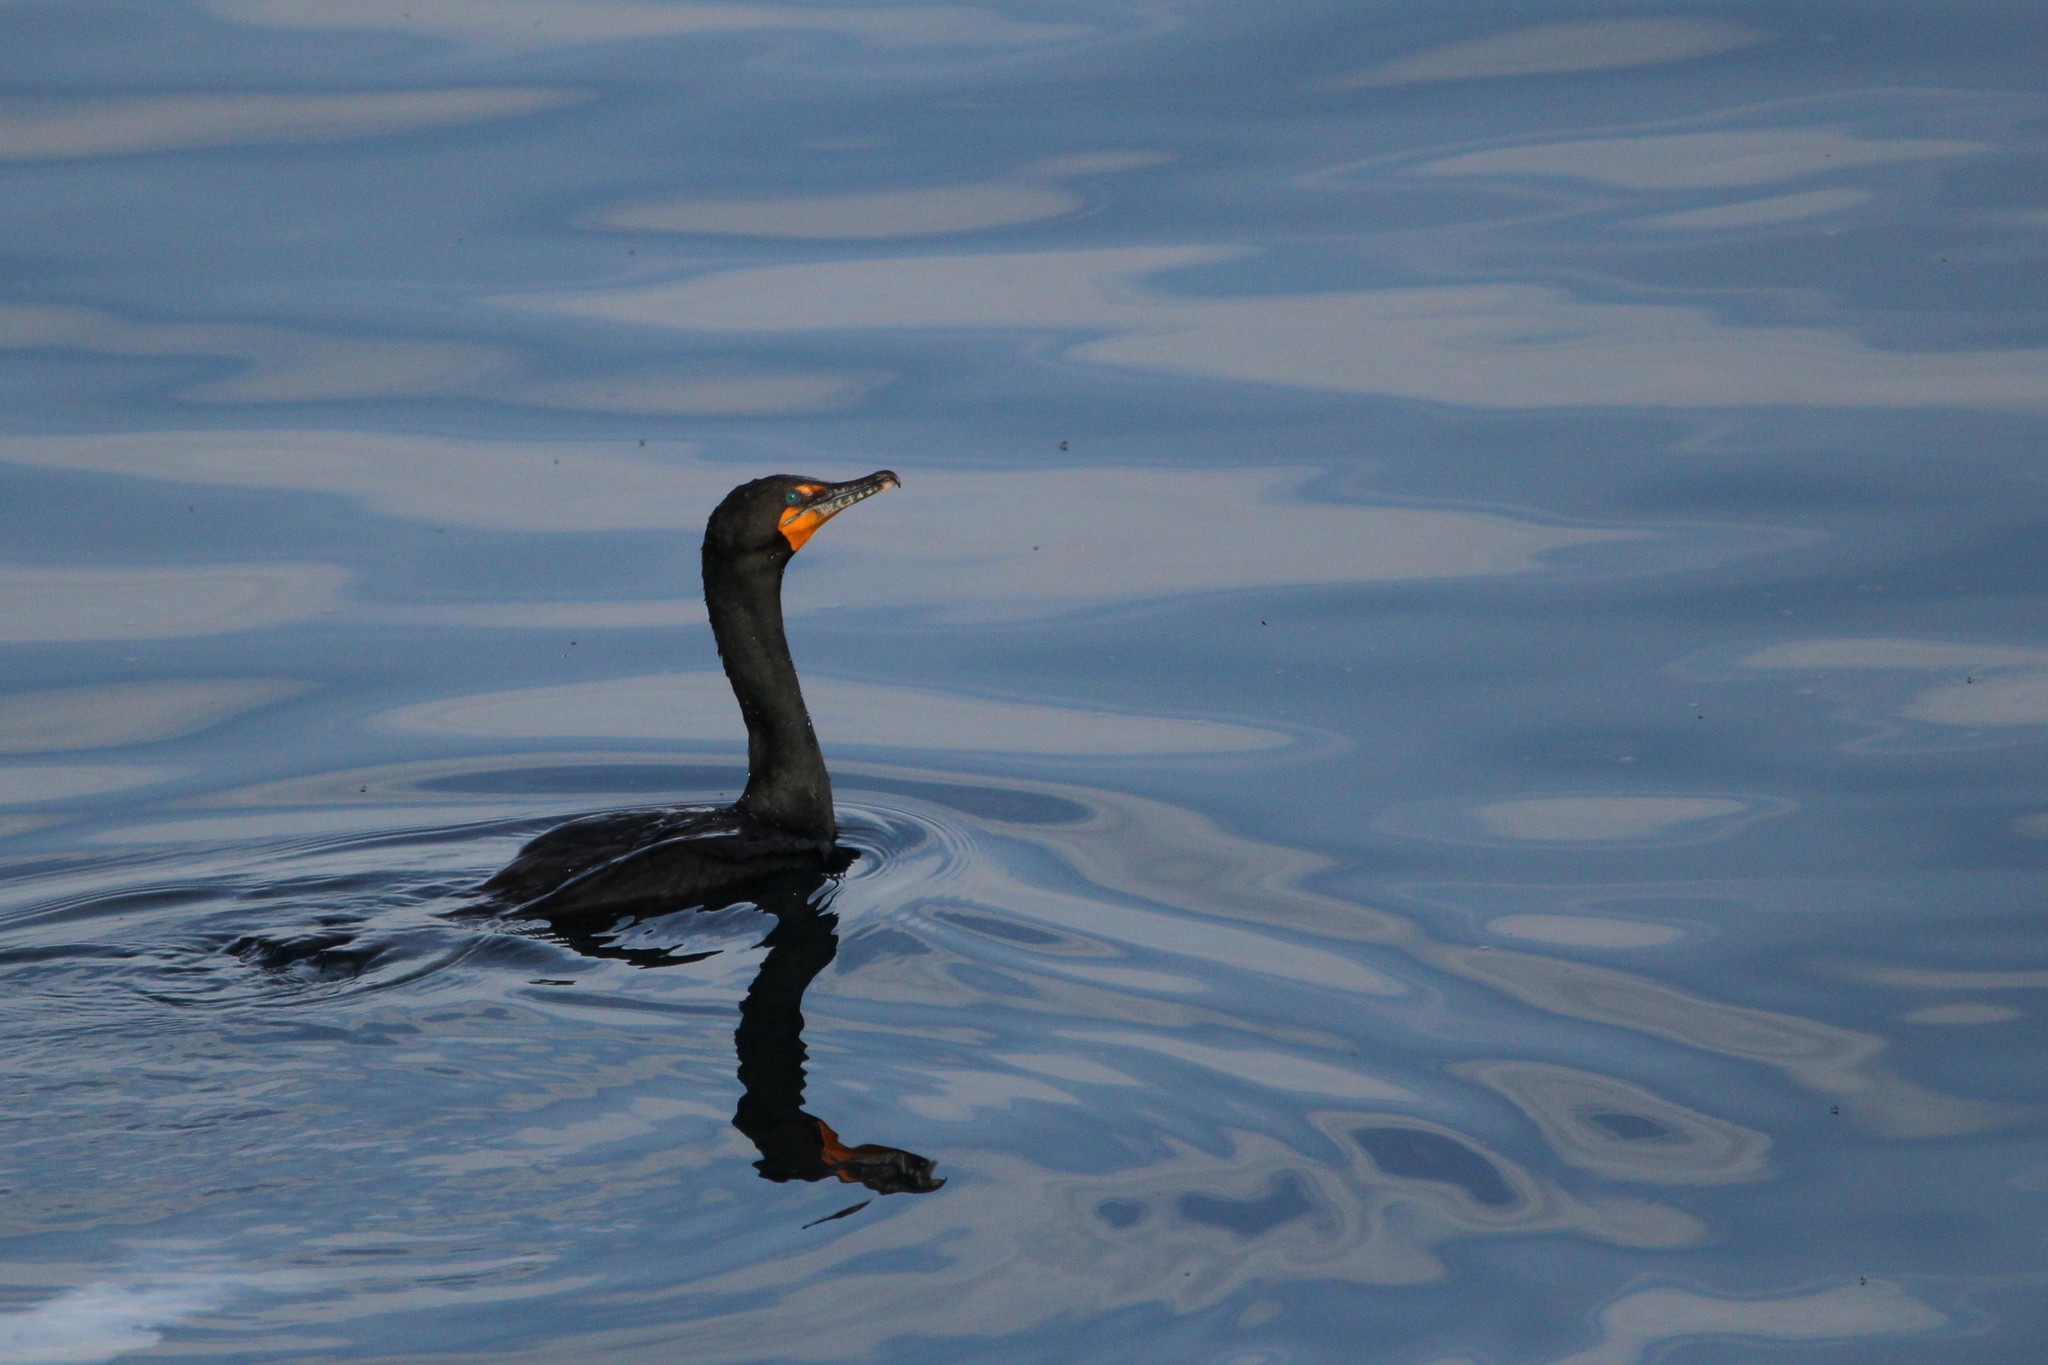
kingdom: Animalia
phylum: Chordata
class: Aves
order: Suliformes
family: Phalacrocoracidae
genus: Phalacrocorax
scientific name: Phalacrocorax auritus
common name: Double-crested cormorant
